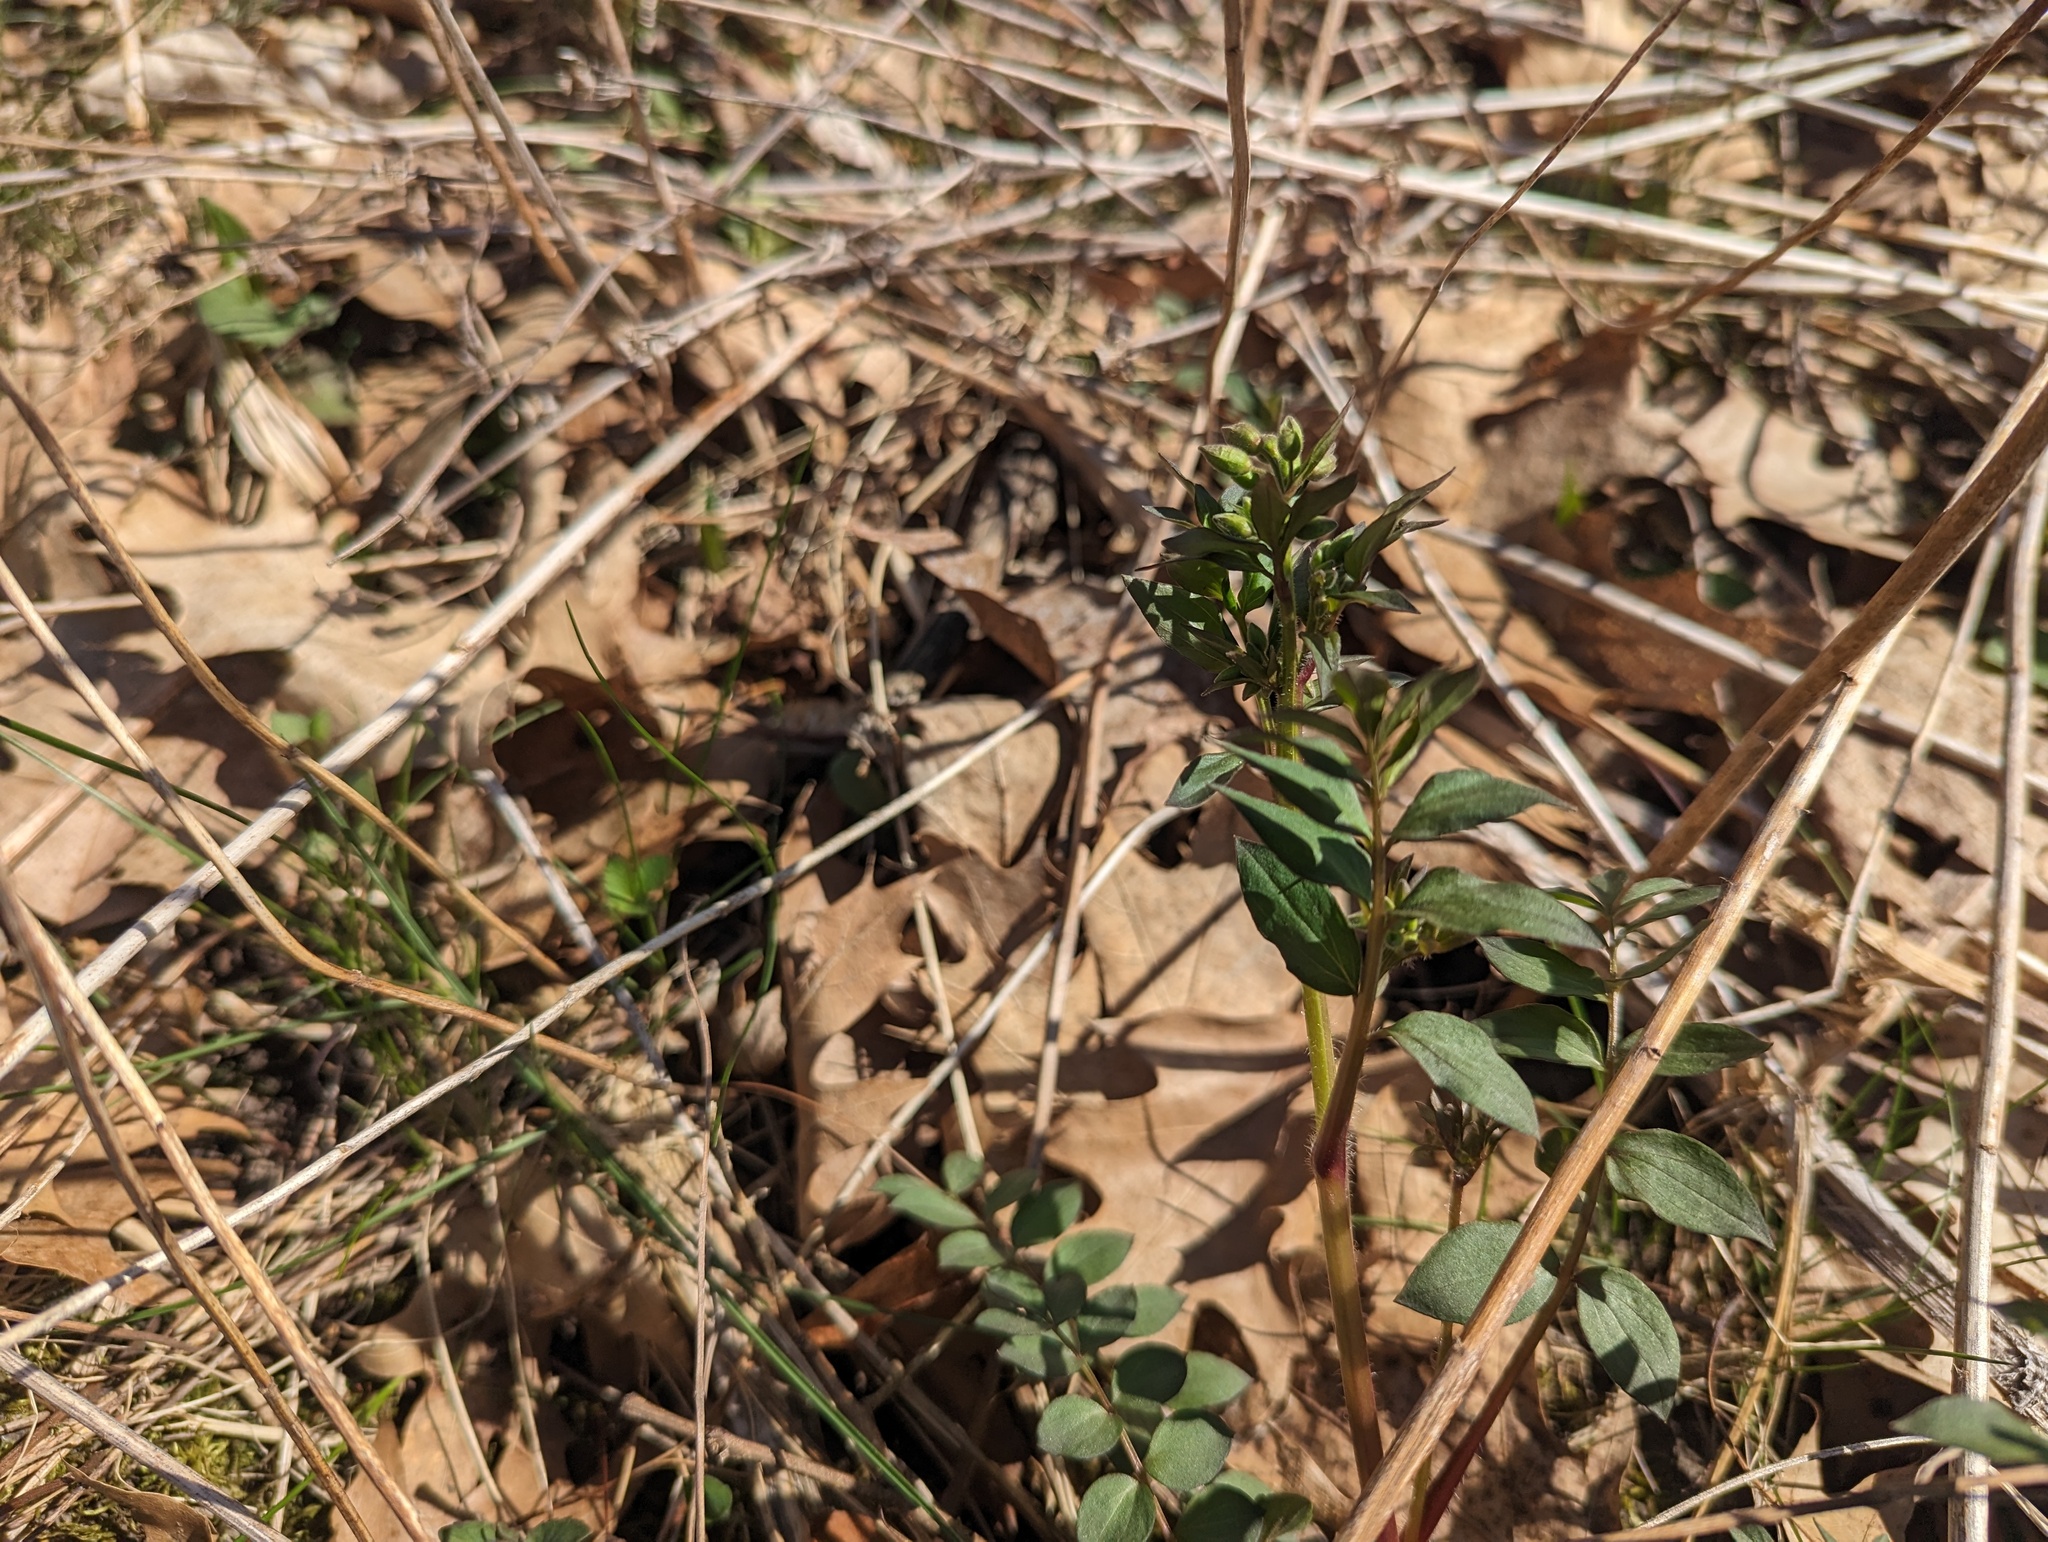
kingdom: Plantae
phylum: Tracheophyta
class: Magnoliopsida
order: Ericales
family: Polemoniaceae
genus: Polemonium
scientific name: Polemonium reptans
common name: Creeping jacob's-ladder
